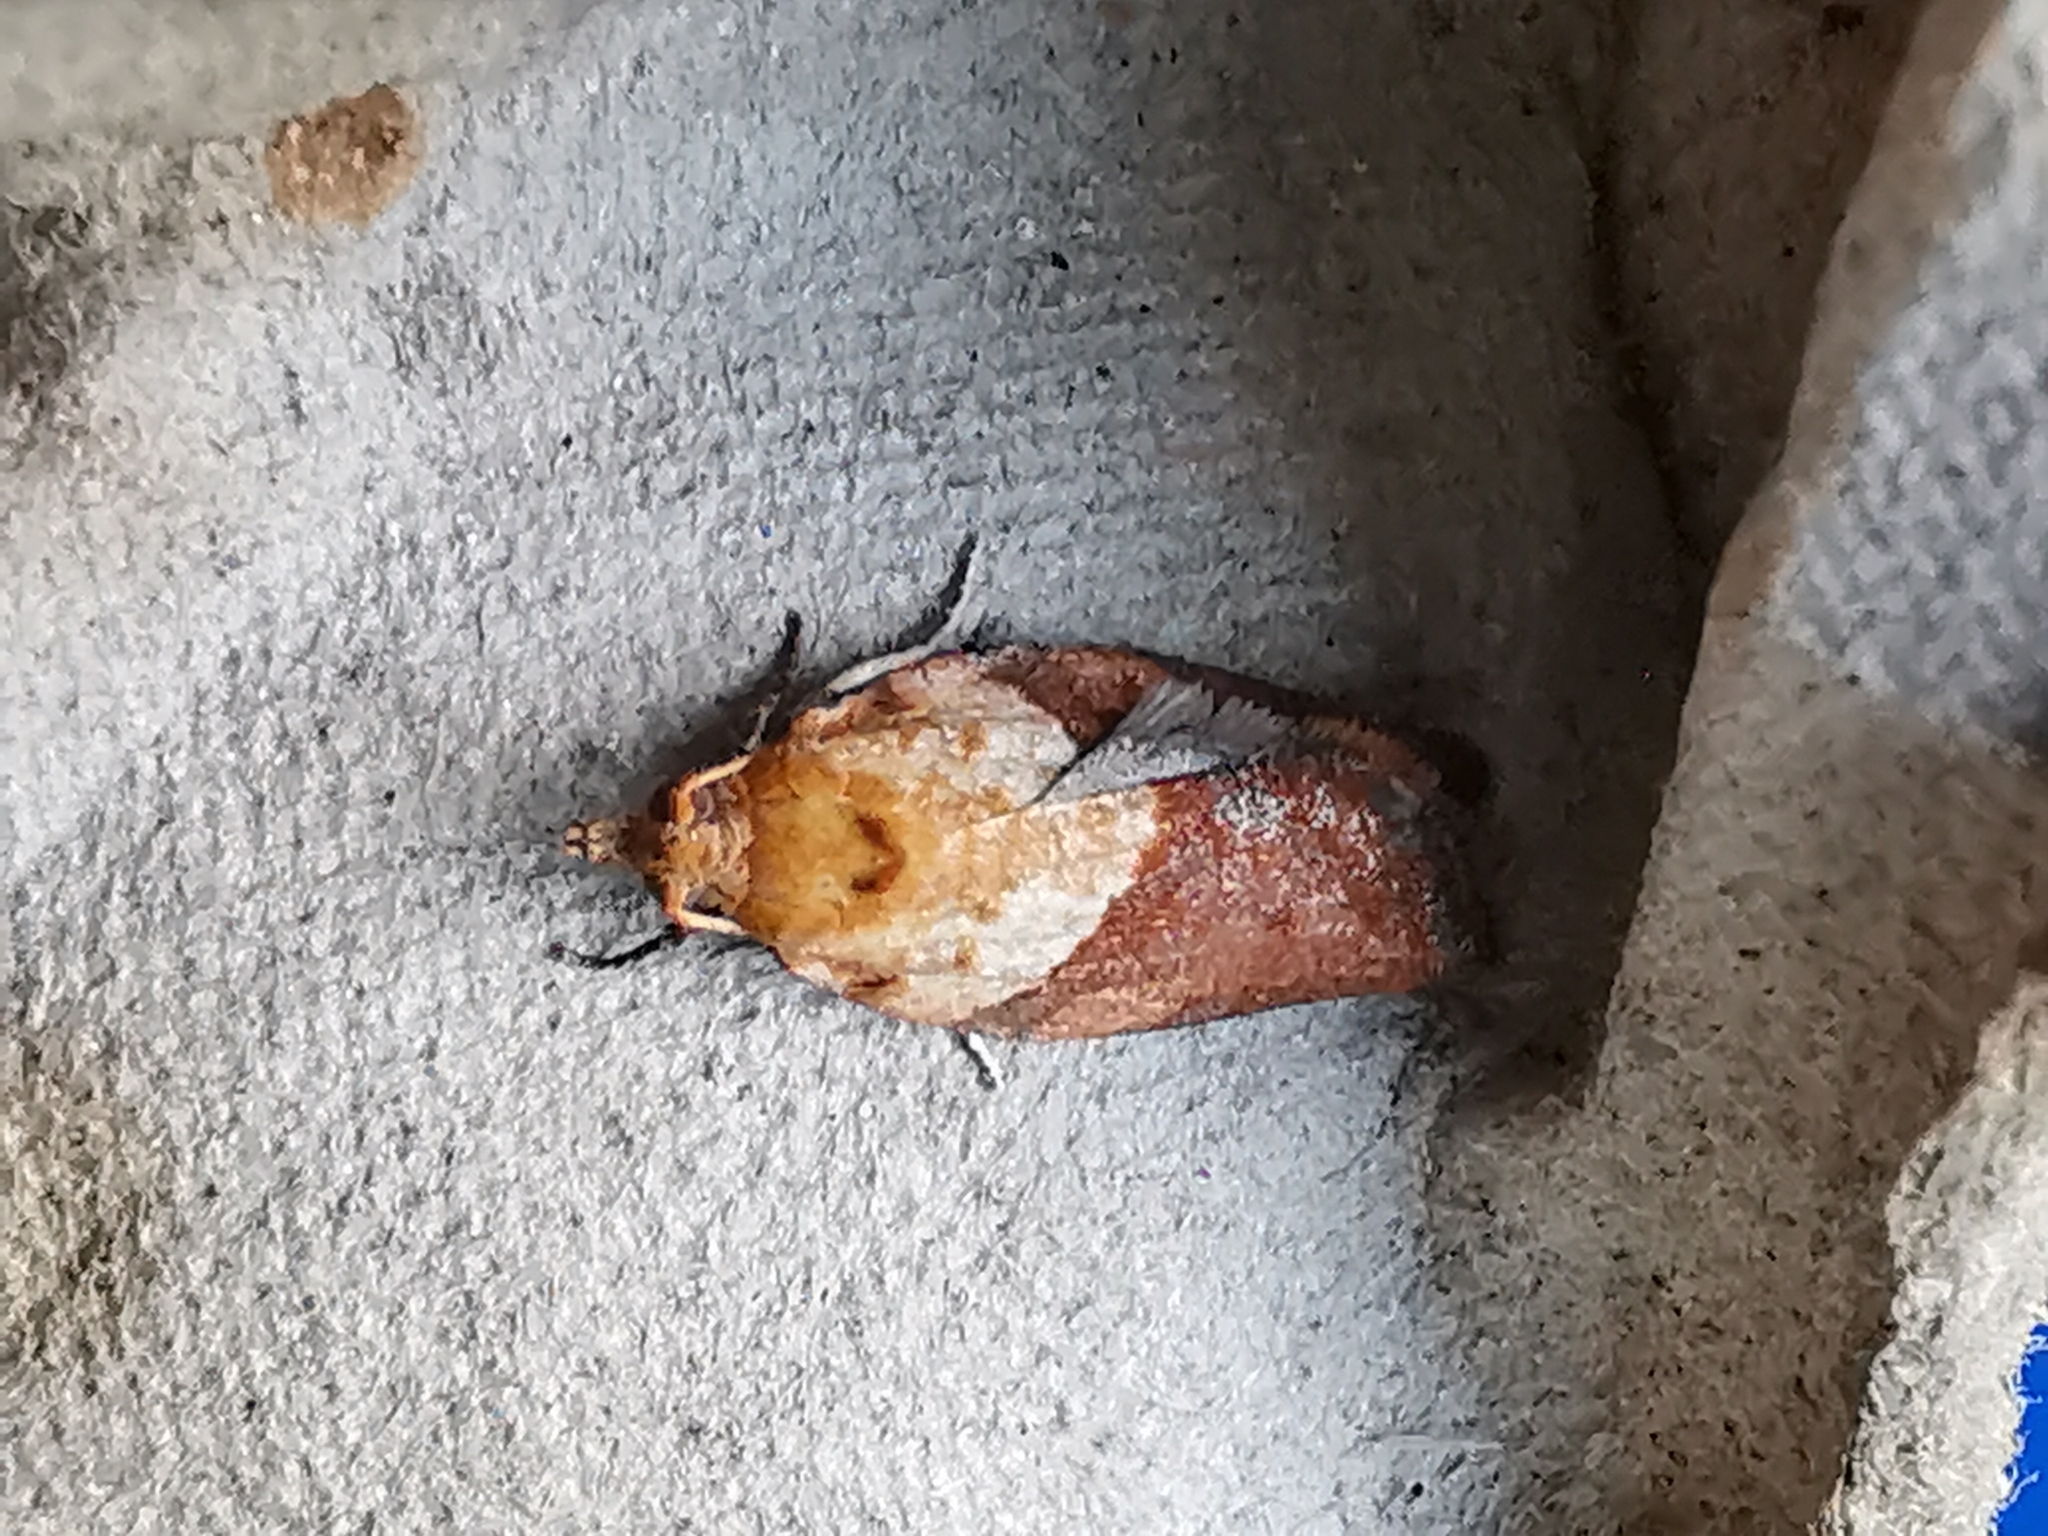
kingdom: Animalia
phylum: Arthropoda
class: Insecta
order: Lepidoptera
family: Tortricidae
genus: Epiphyas
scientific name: Epiphyas postvittana
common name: Light brown apple moth
